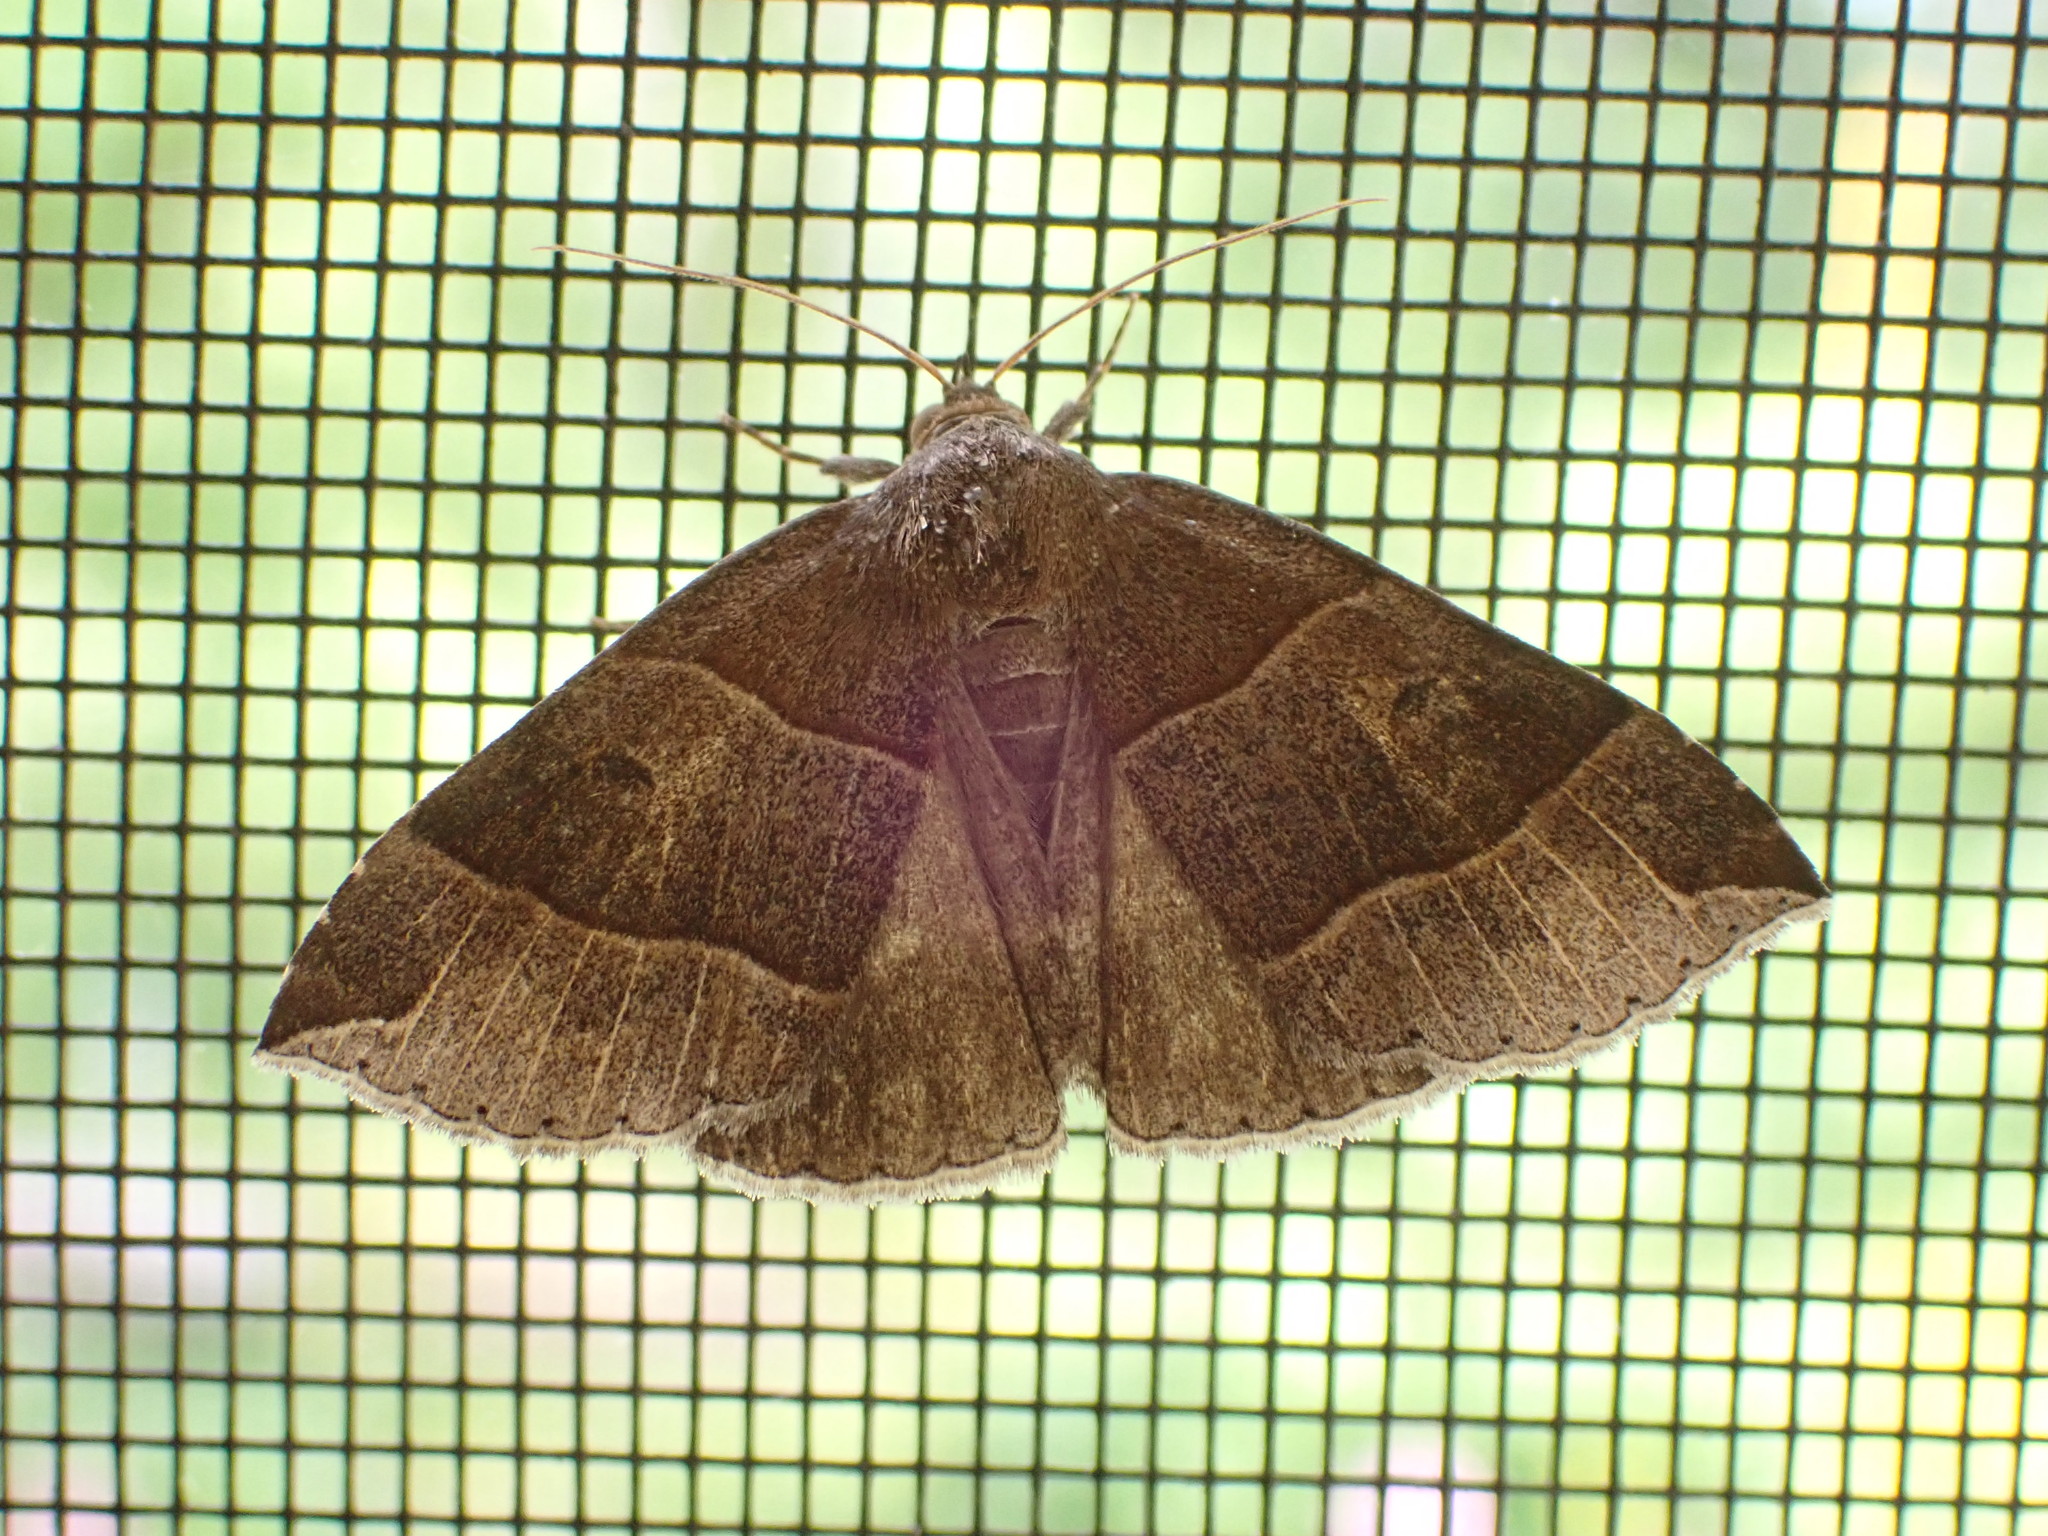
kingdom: Animalia
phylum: Arthropoda
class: Insecta
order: Lepidoptera
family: Erebidae
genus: Parallelia
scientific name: Parallelia bistriaris
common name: Maple looper moth
